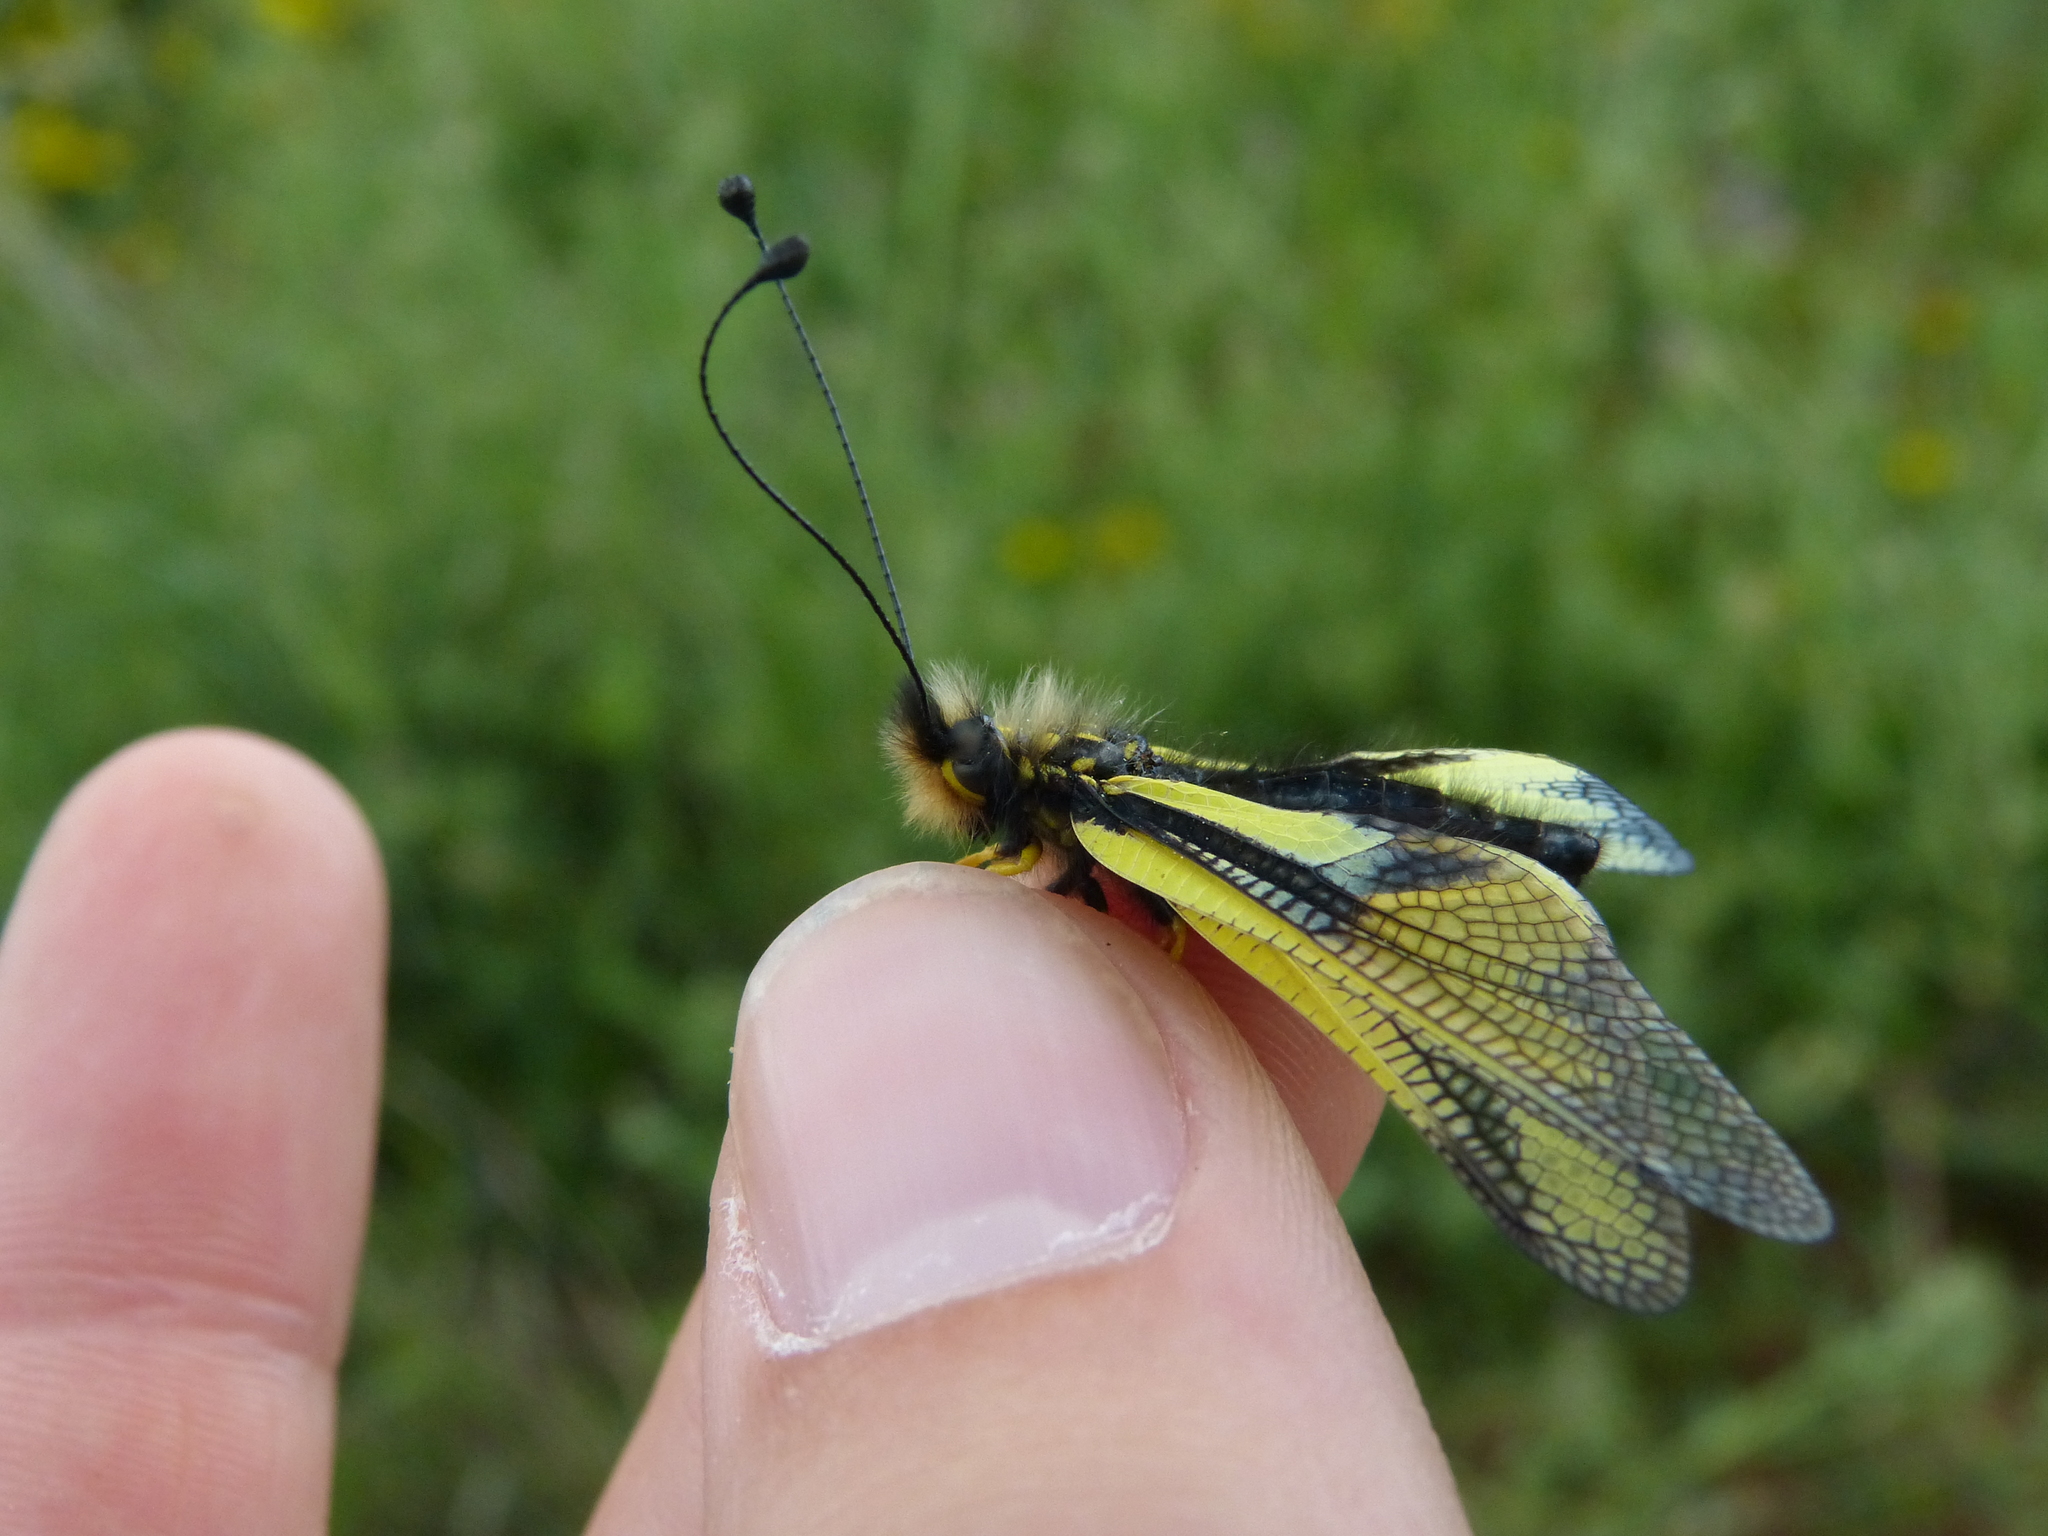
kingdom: Animalia
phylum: Arthropoda
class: Insecta
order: Neuroptera
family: Ascalaphidae
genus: Libelloides
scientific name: Libelloides coccajus
